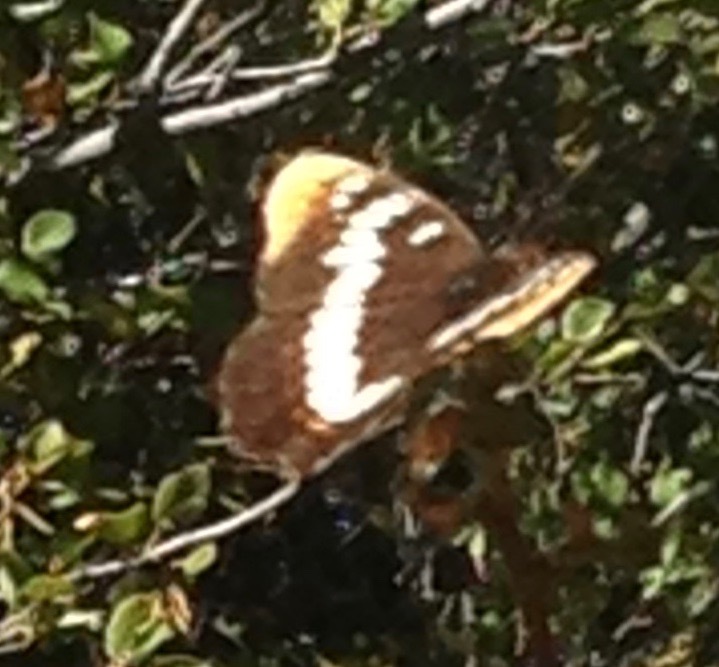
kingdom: Animalia
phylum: Arthropoda
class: Insecta
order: Lepidoptera
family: Nymphalidae
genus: Limenitis
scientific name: Limenitis lorquini
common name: Lorquin's admiral
